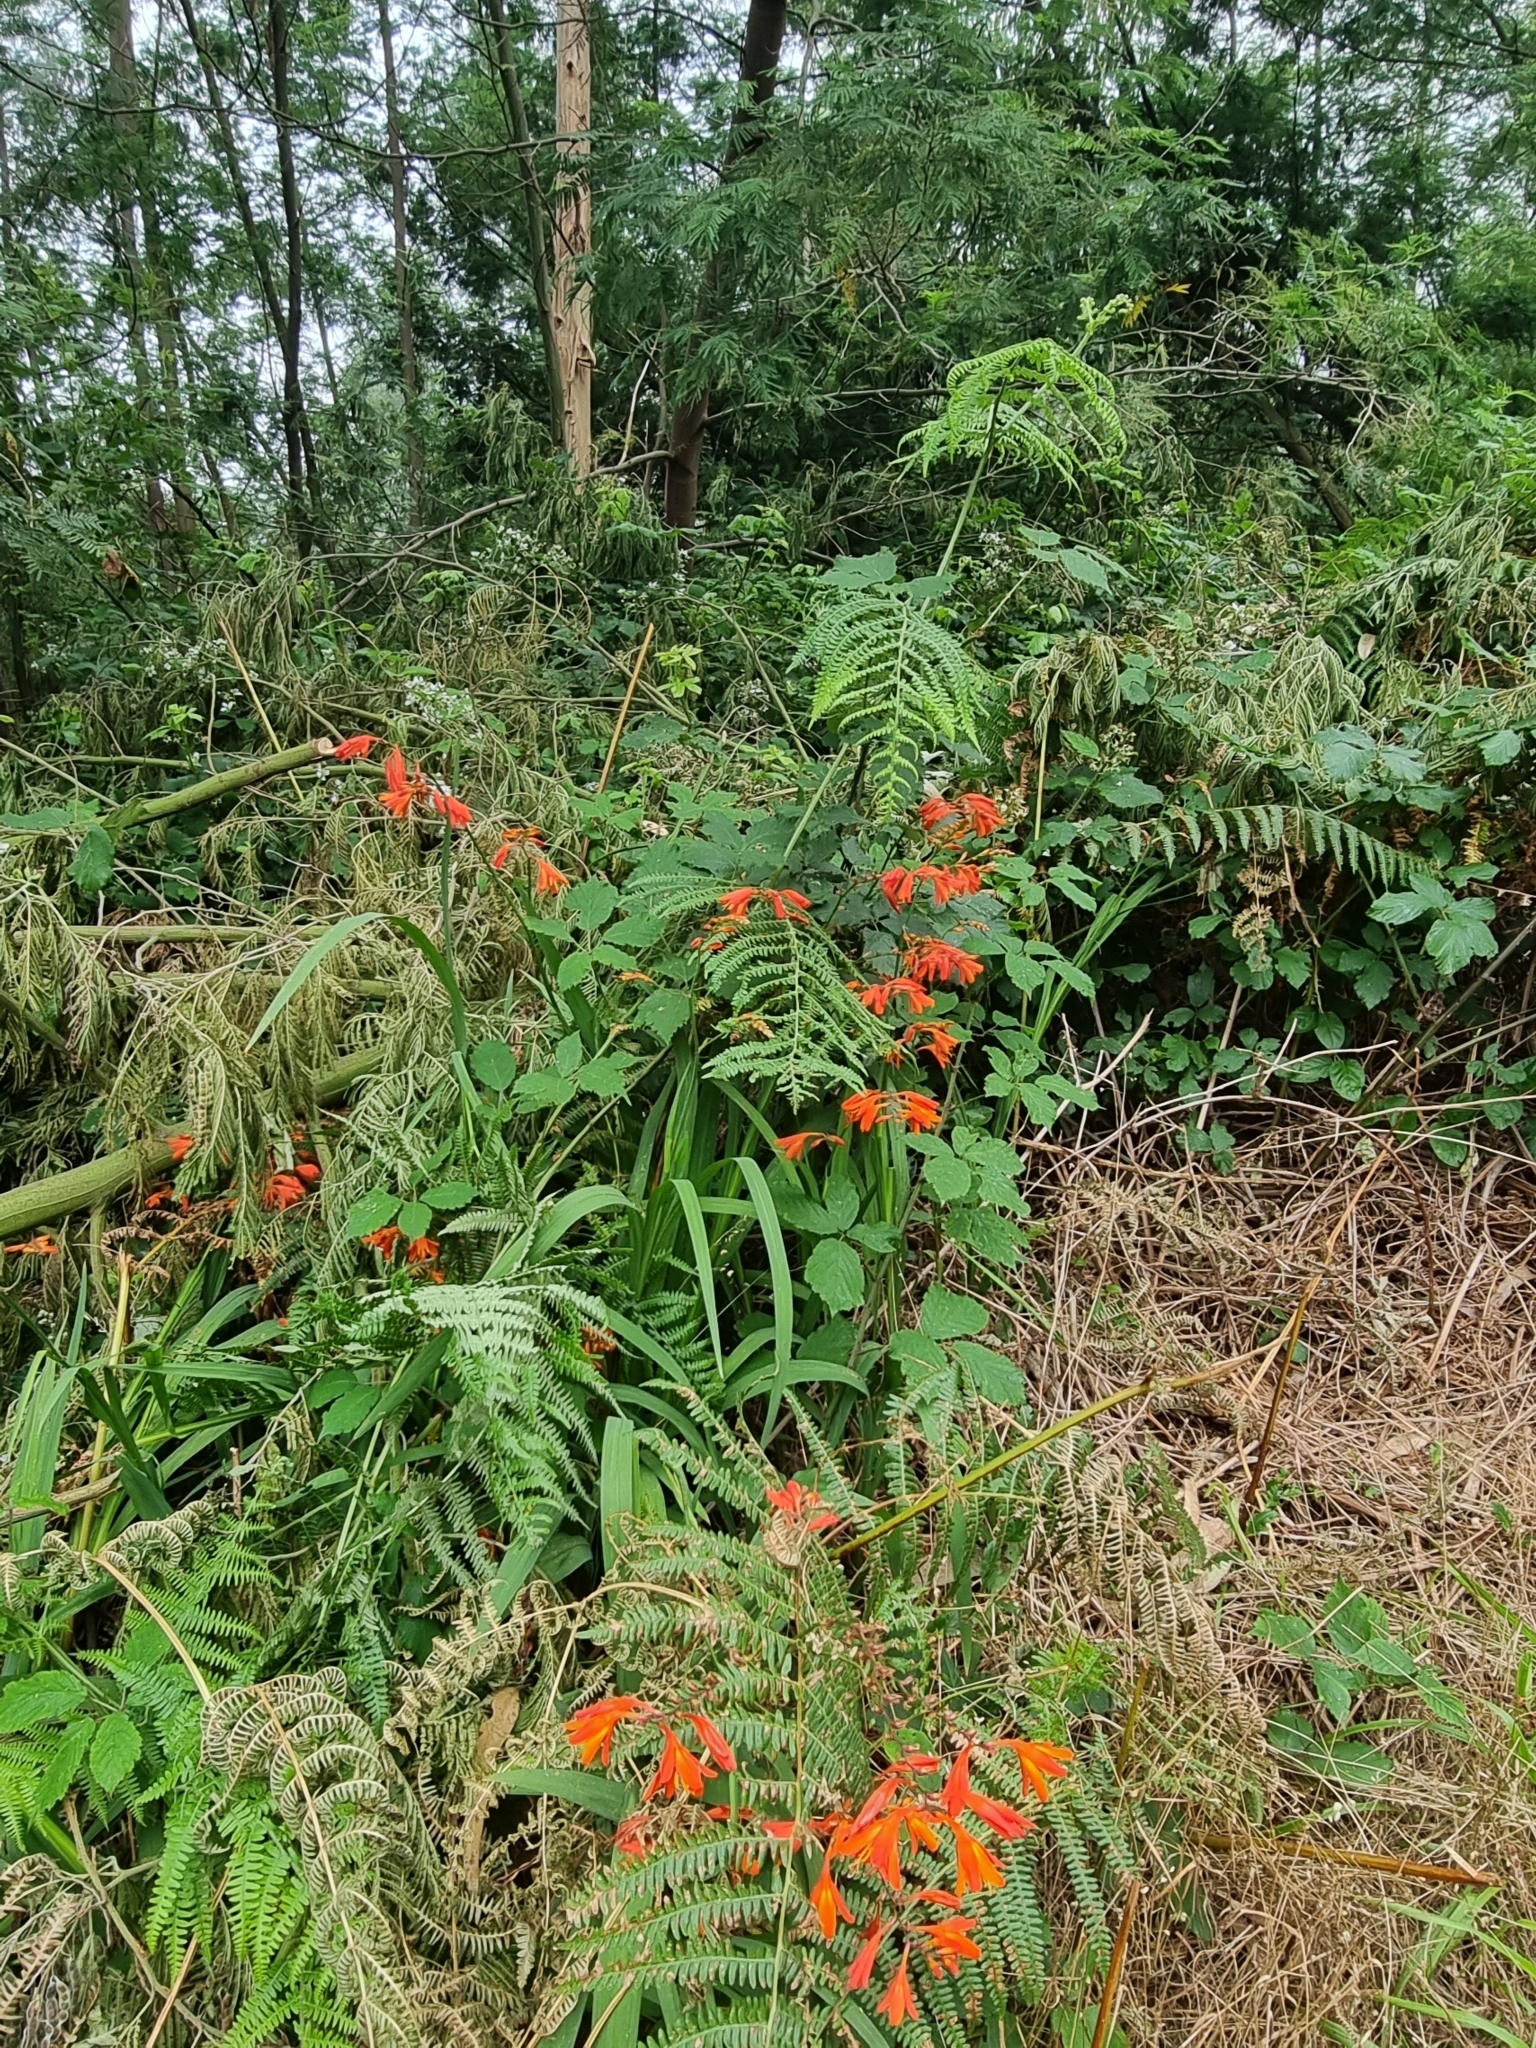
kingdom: Plantae
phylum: Tracheophyta
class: Liliopsida
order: Asparagales
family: Iridaceae
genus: Crocosmia
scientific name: Crocosmia crocosmiiflora
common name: Montbretia
